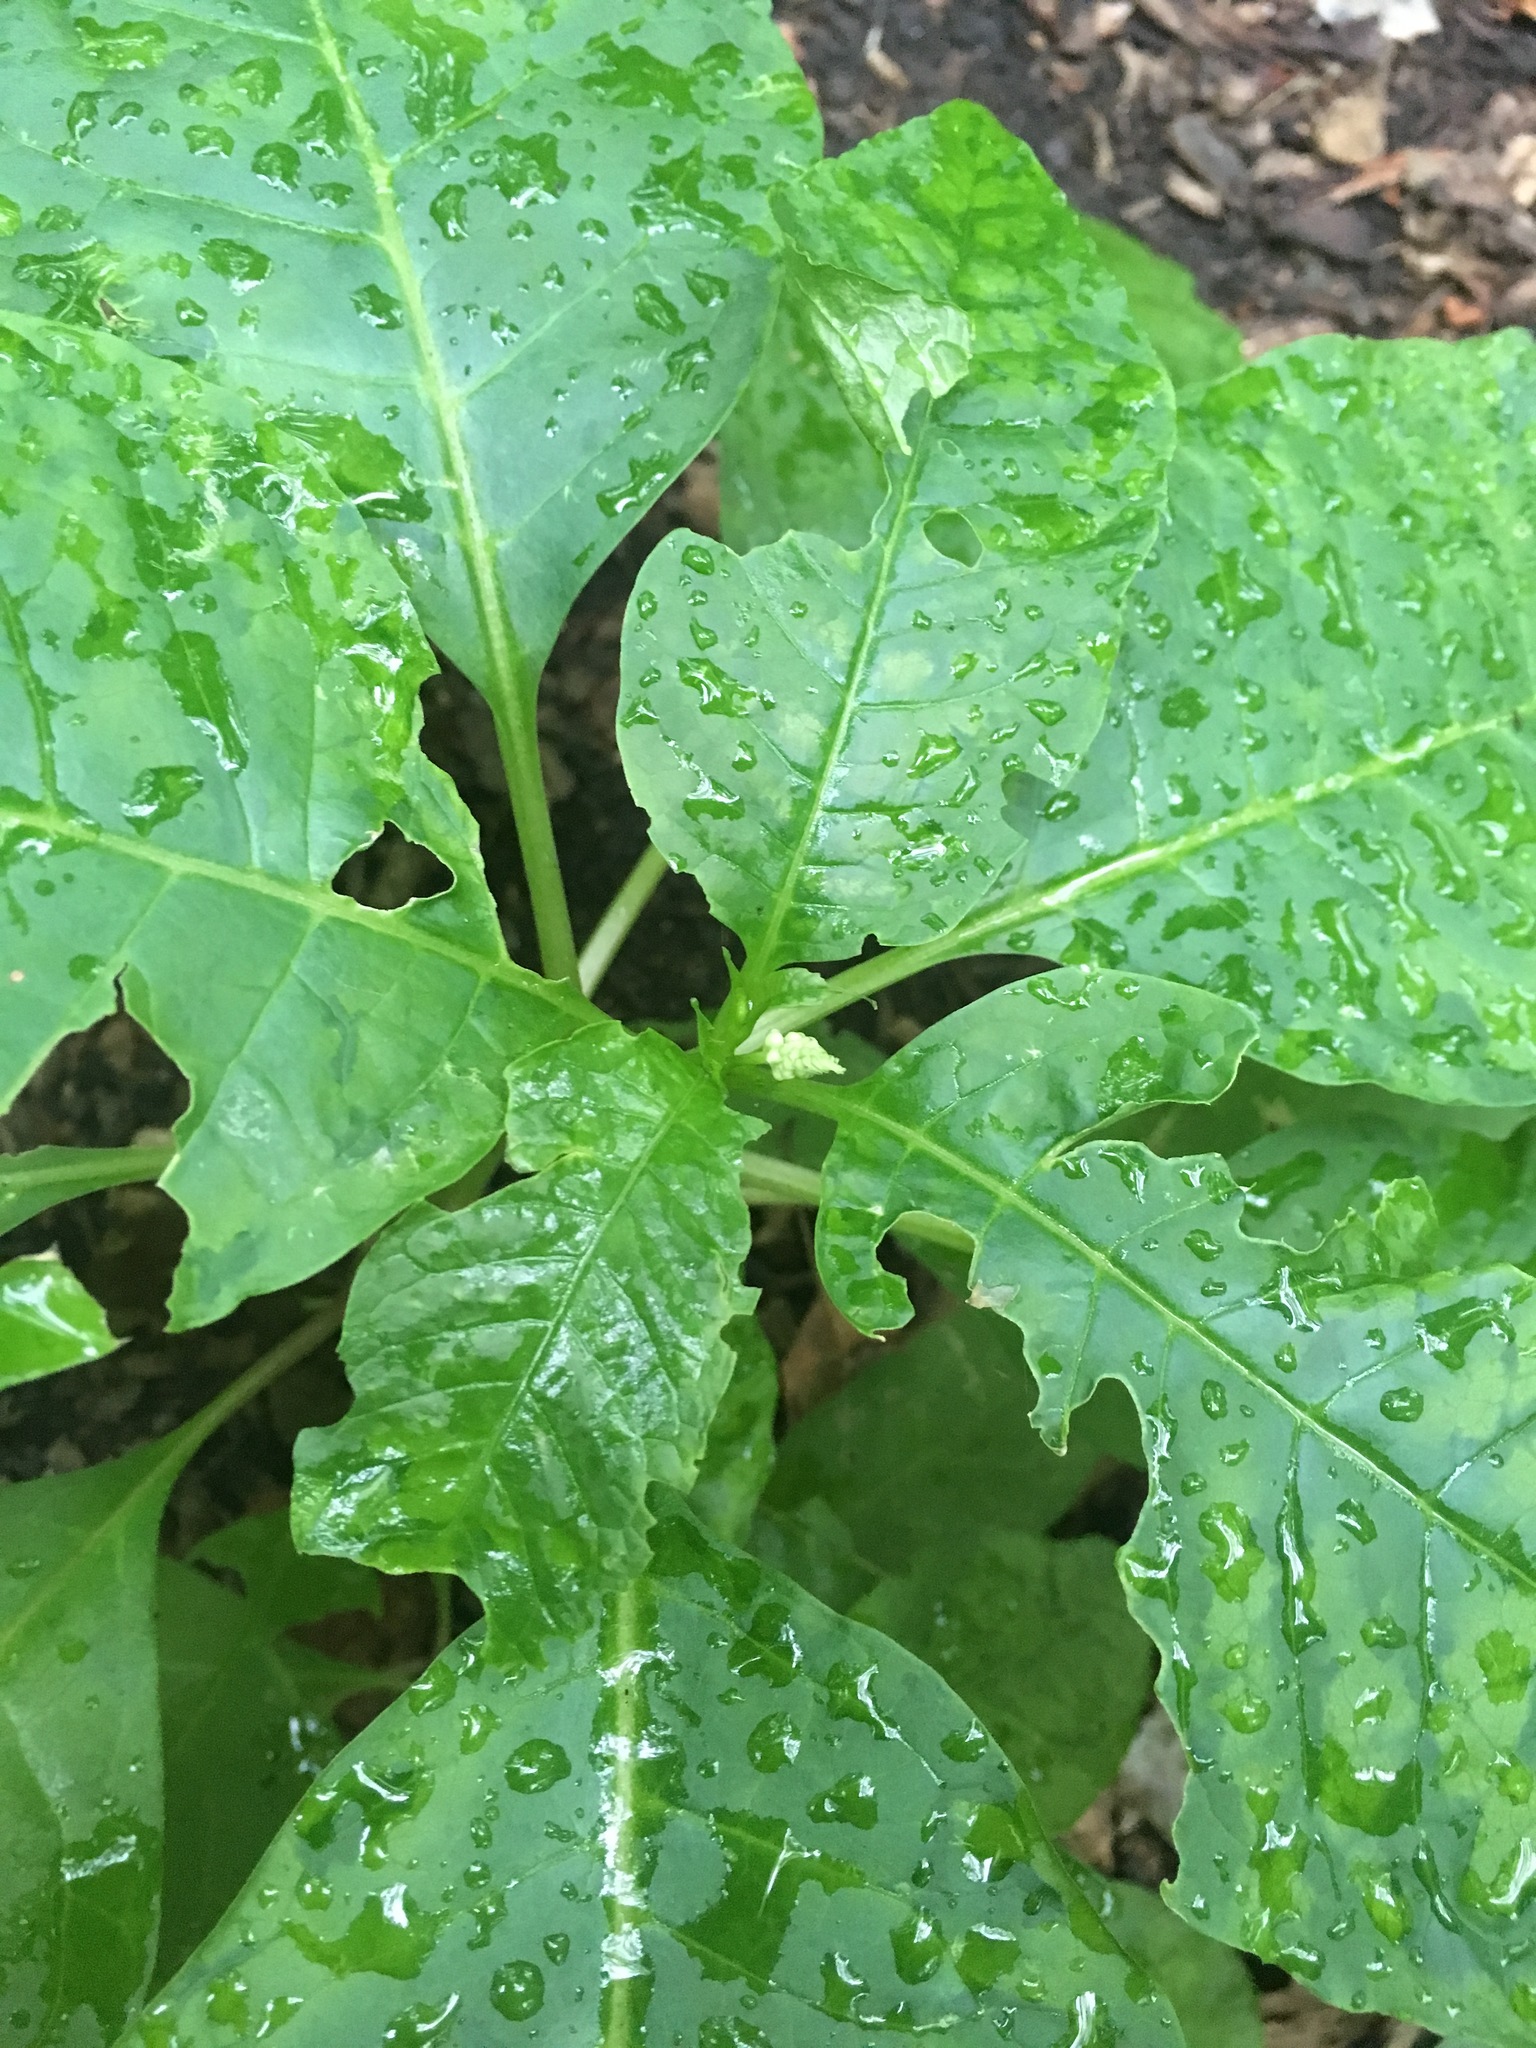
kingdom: Plantae
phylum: Tracheophyta
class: Magnoliopsida
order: Caryophyllales
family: Phytolaccaceae
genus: Phytolacca
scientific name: Phytolacca americana
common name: American pokeweed
